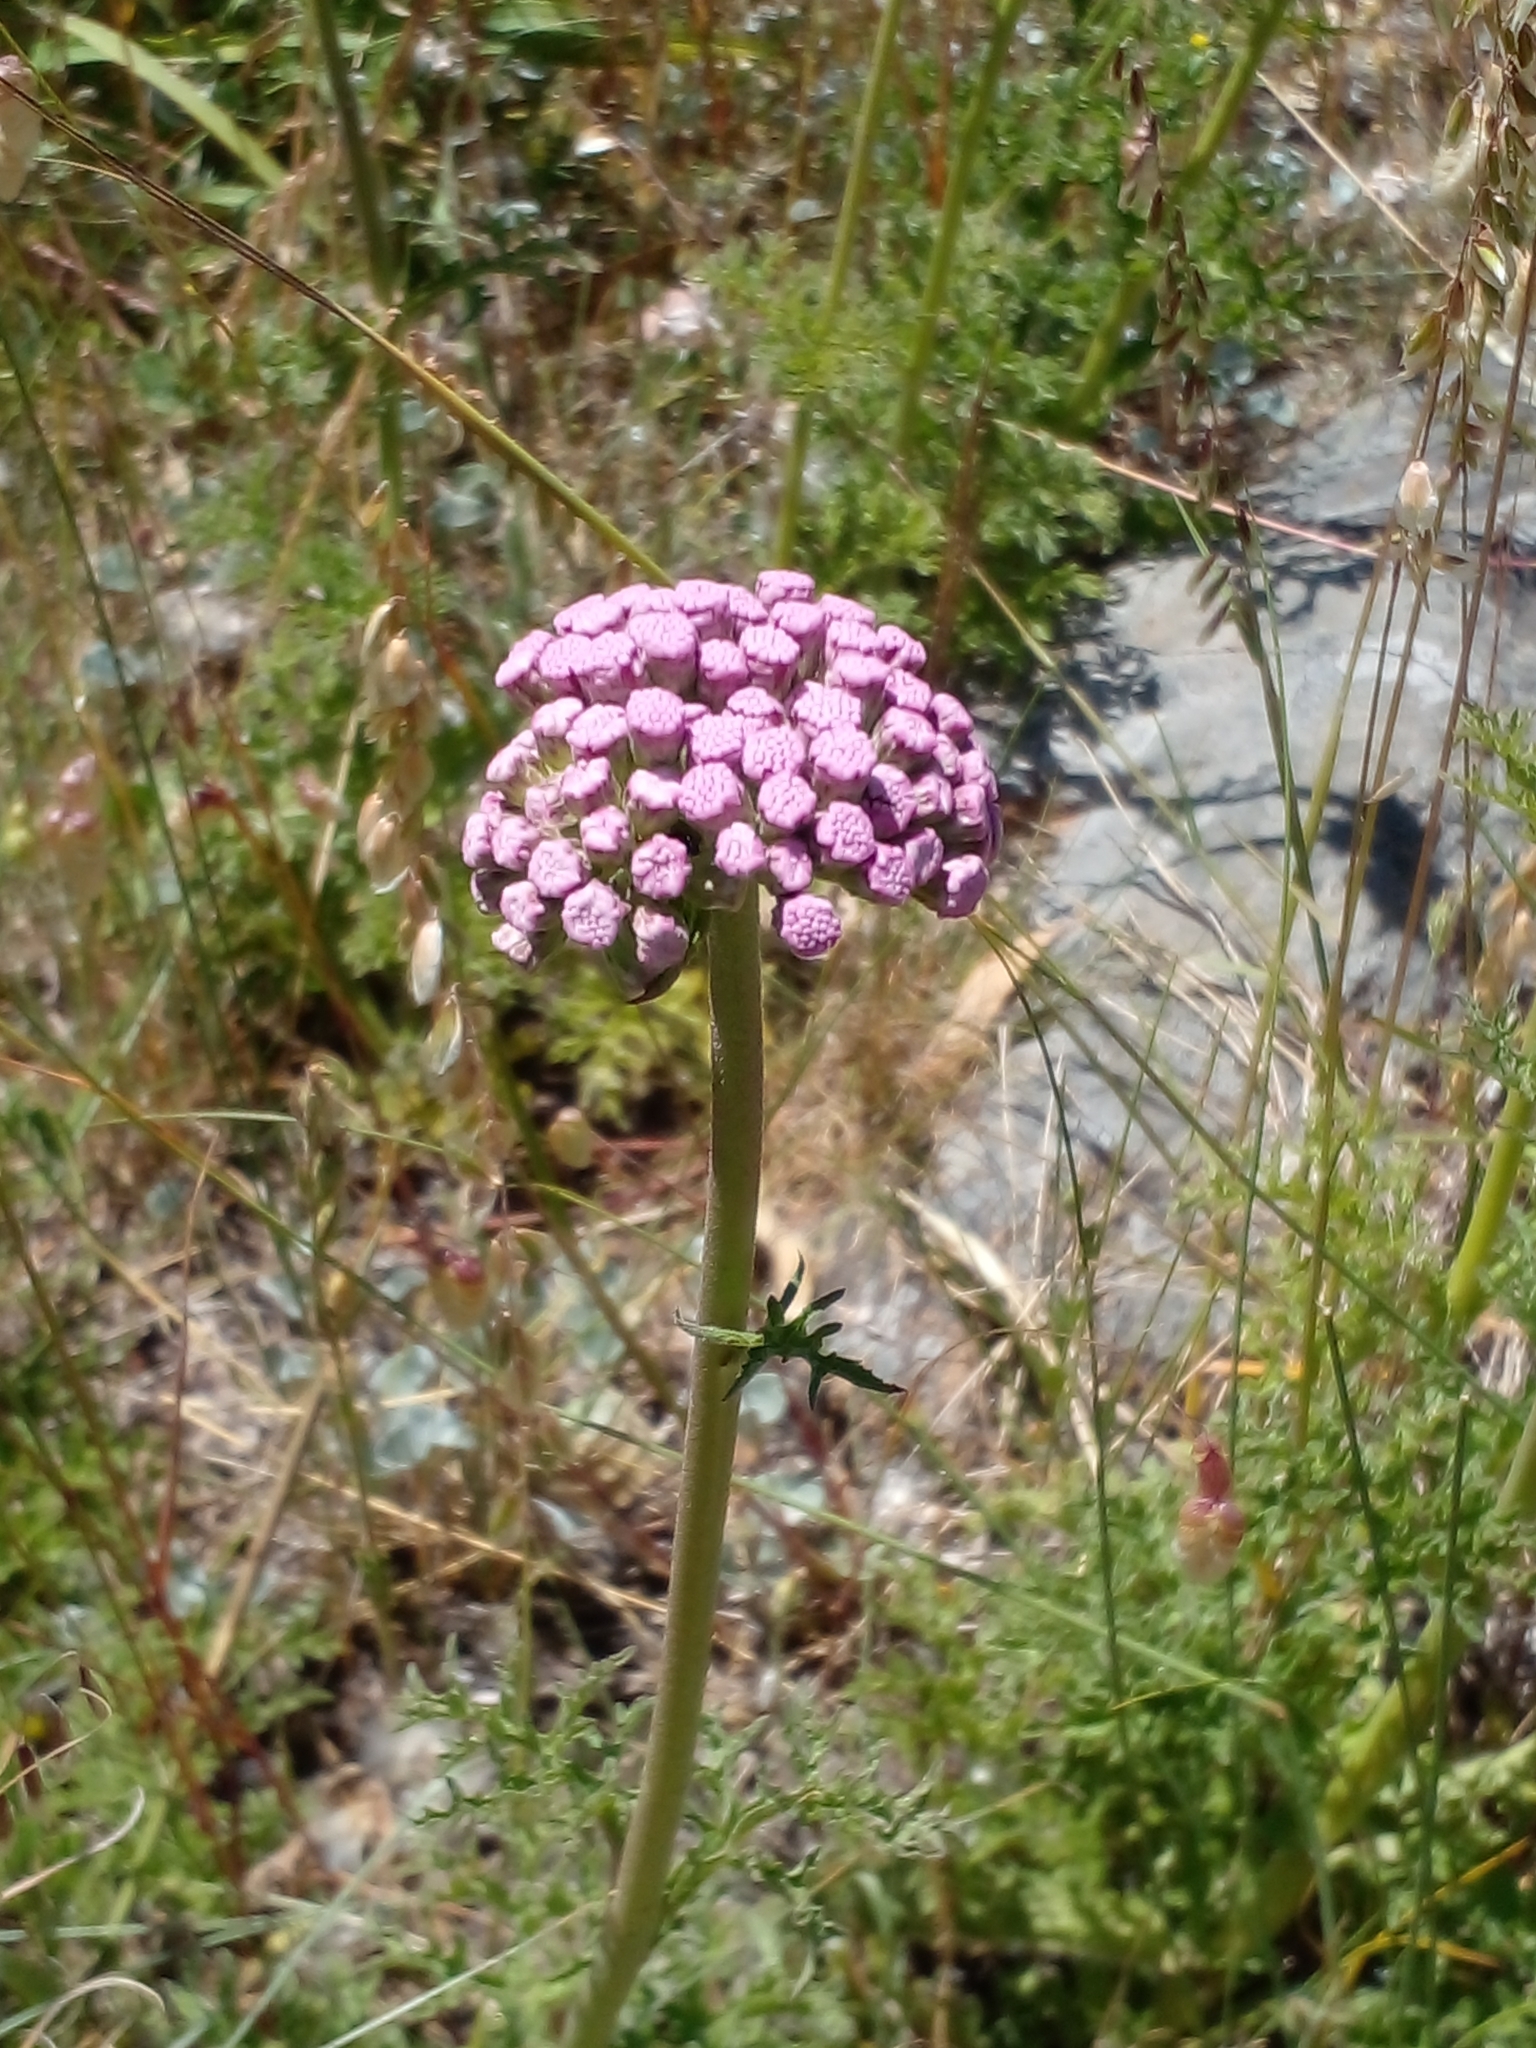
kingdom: Plantae
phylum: Tracheophyta
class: Magnoliopsida
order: Asterales
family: Asteraceae
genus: Gyptis
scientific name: Gyptis tanacetifolia
